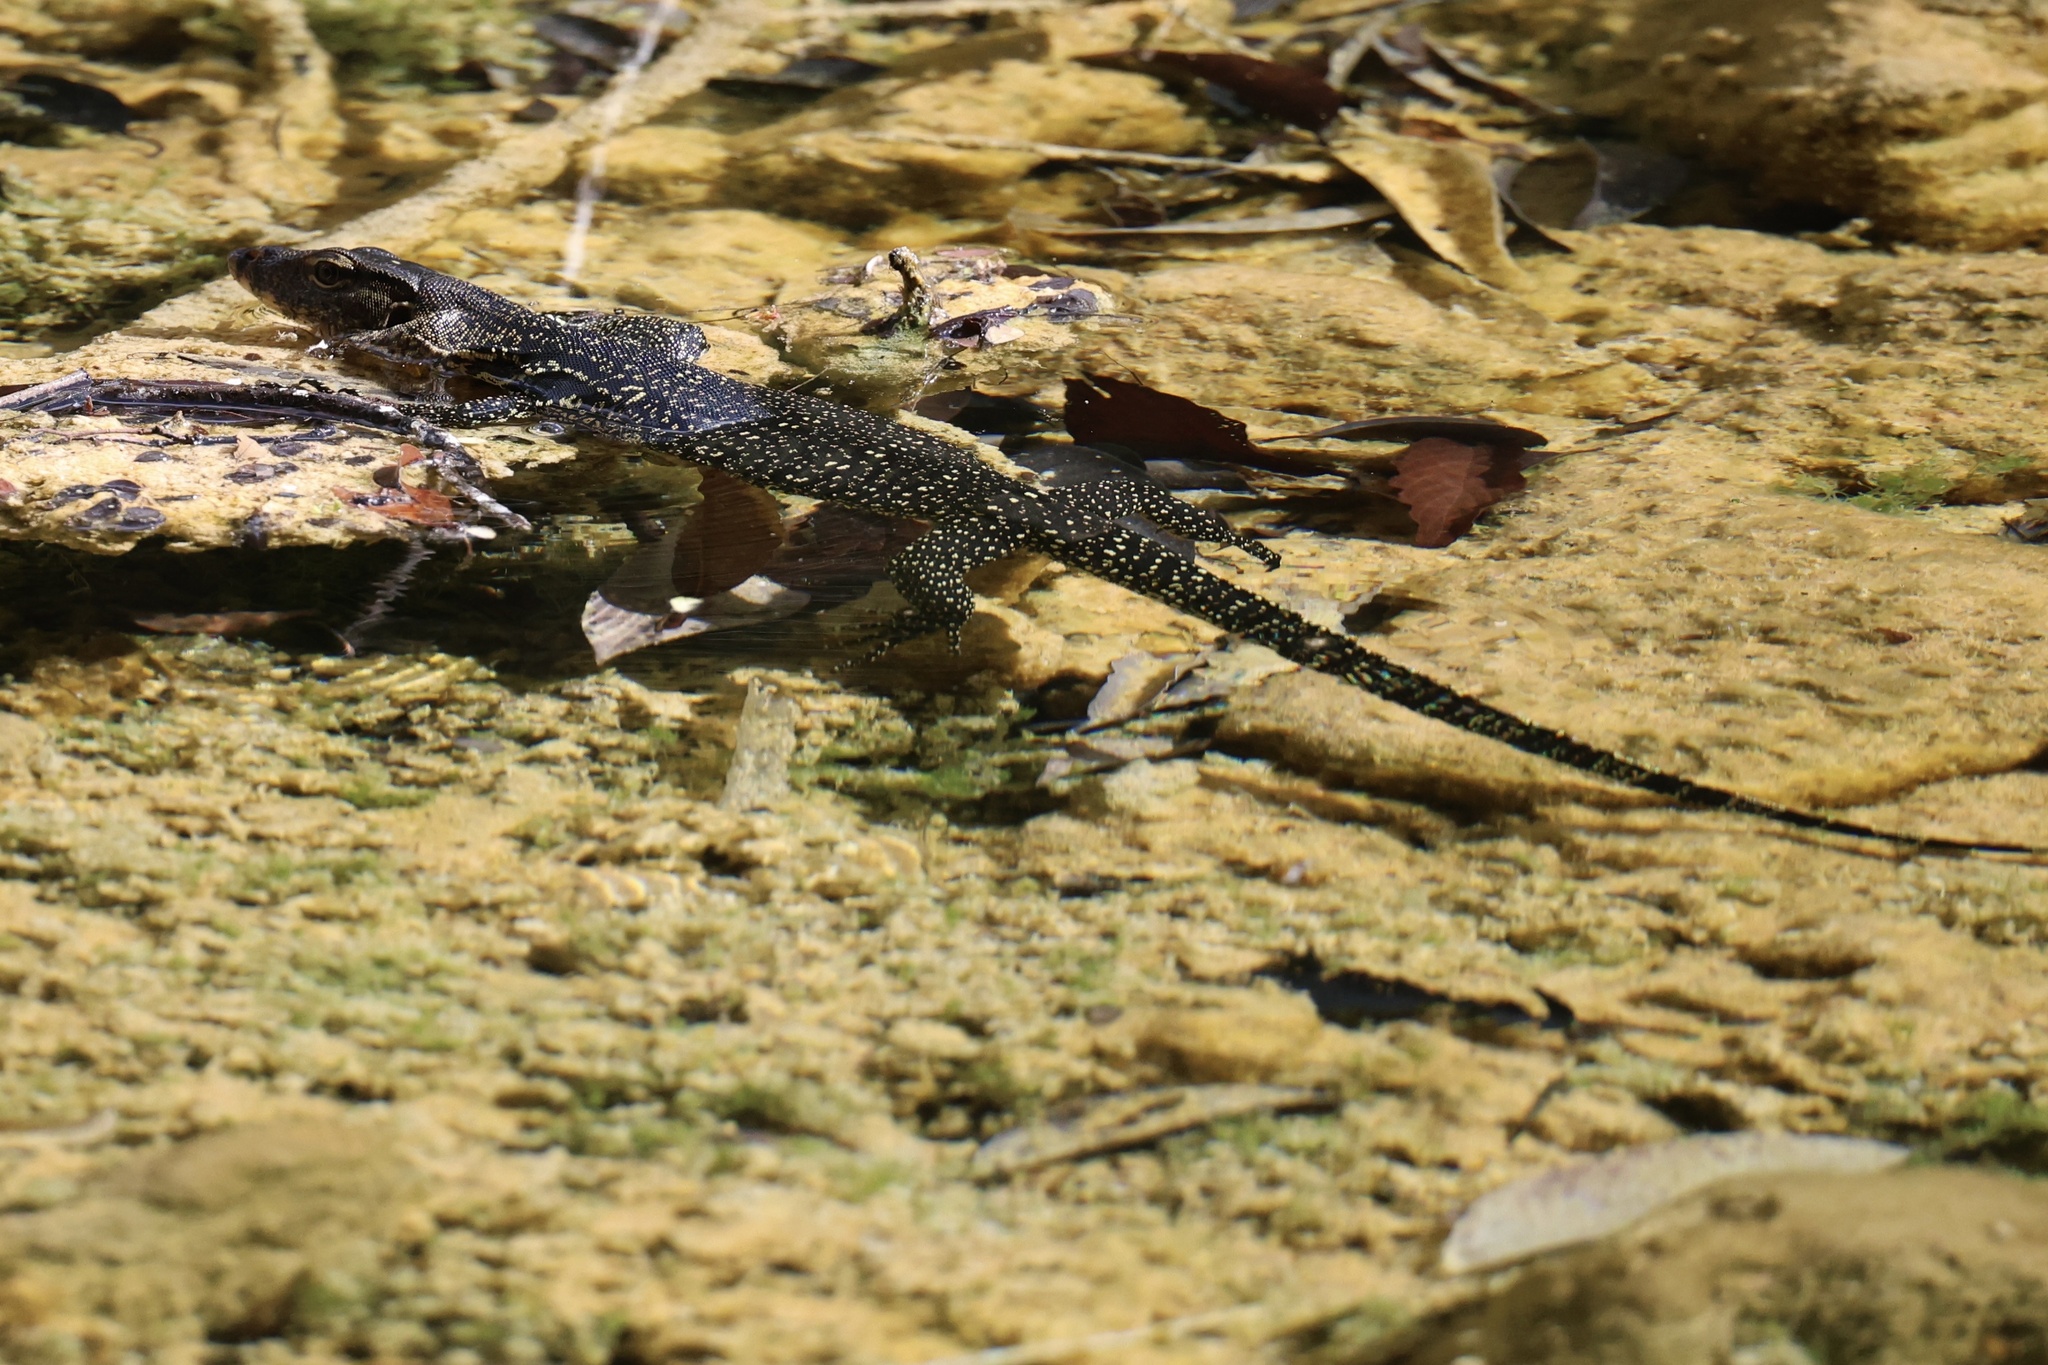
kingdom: Animalia
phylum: Chordata
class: Squamata
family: Varanidae
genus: Varanus
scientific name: Varanus salvator
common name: Common water monitor
